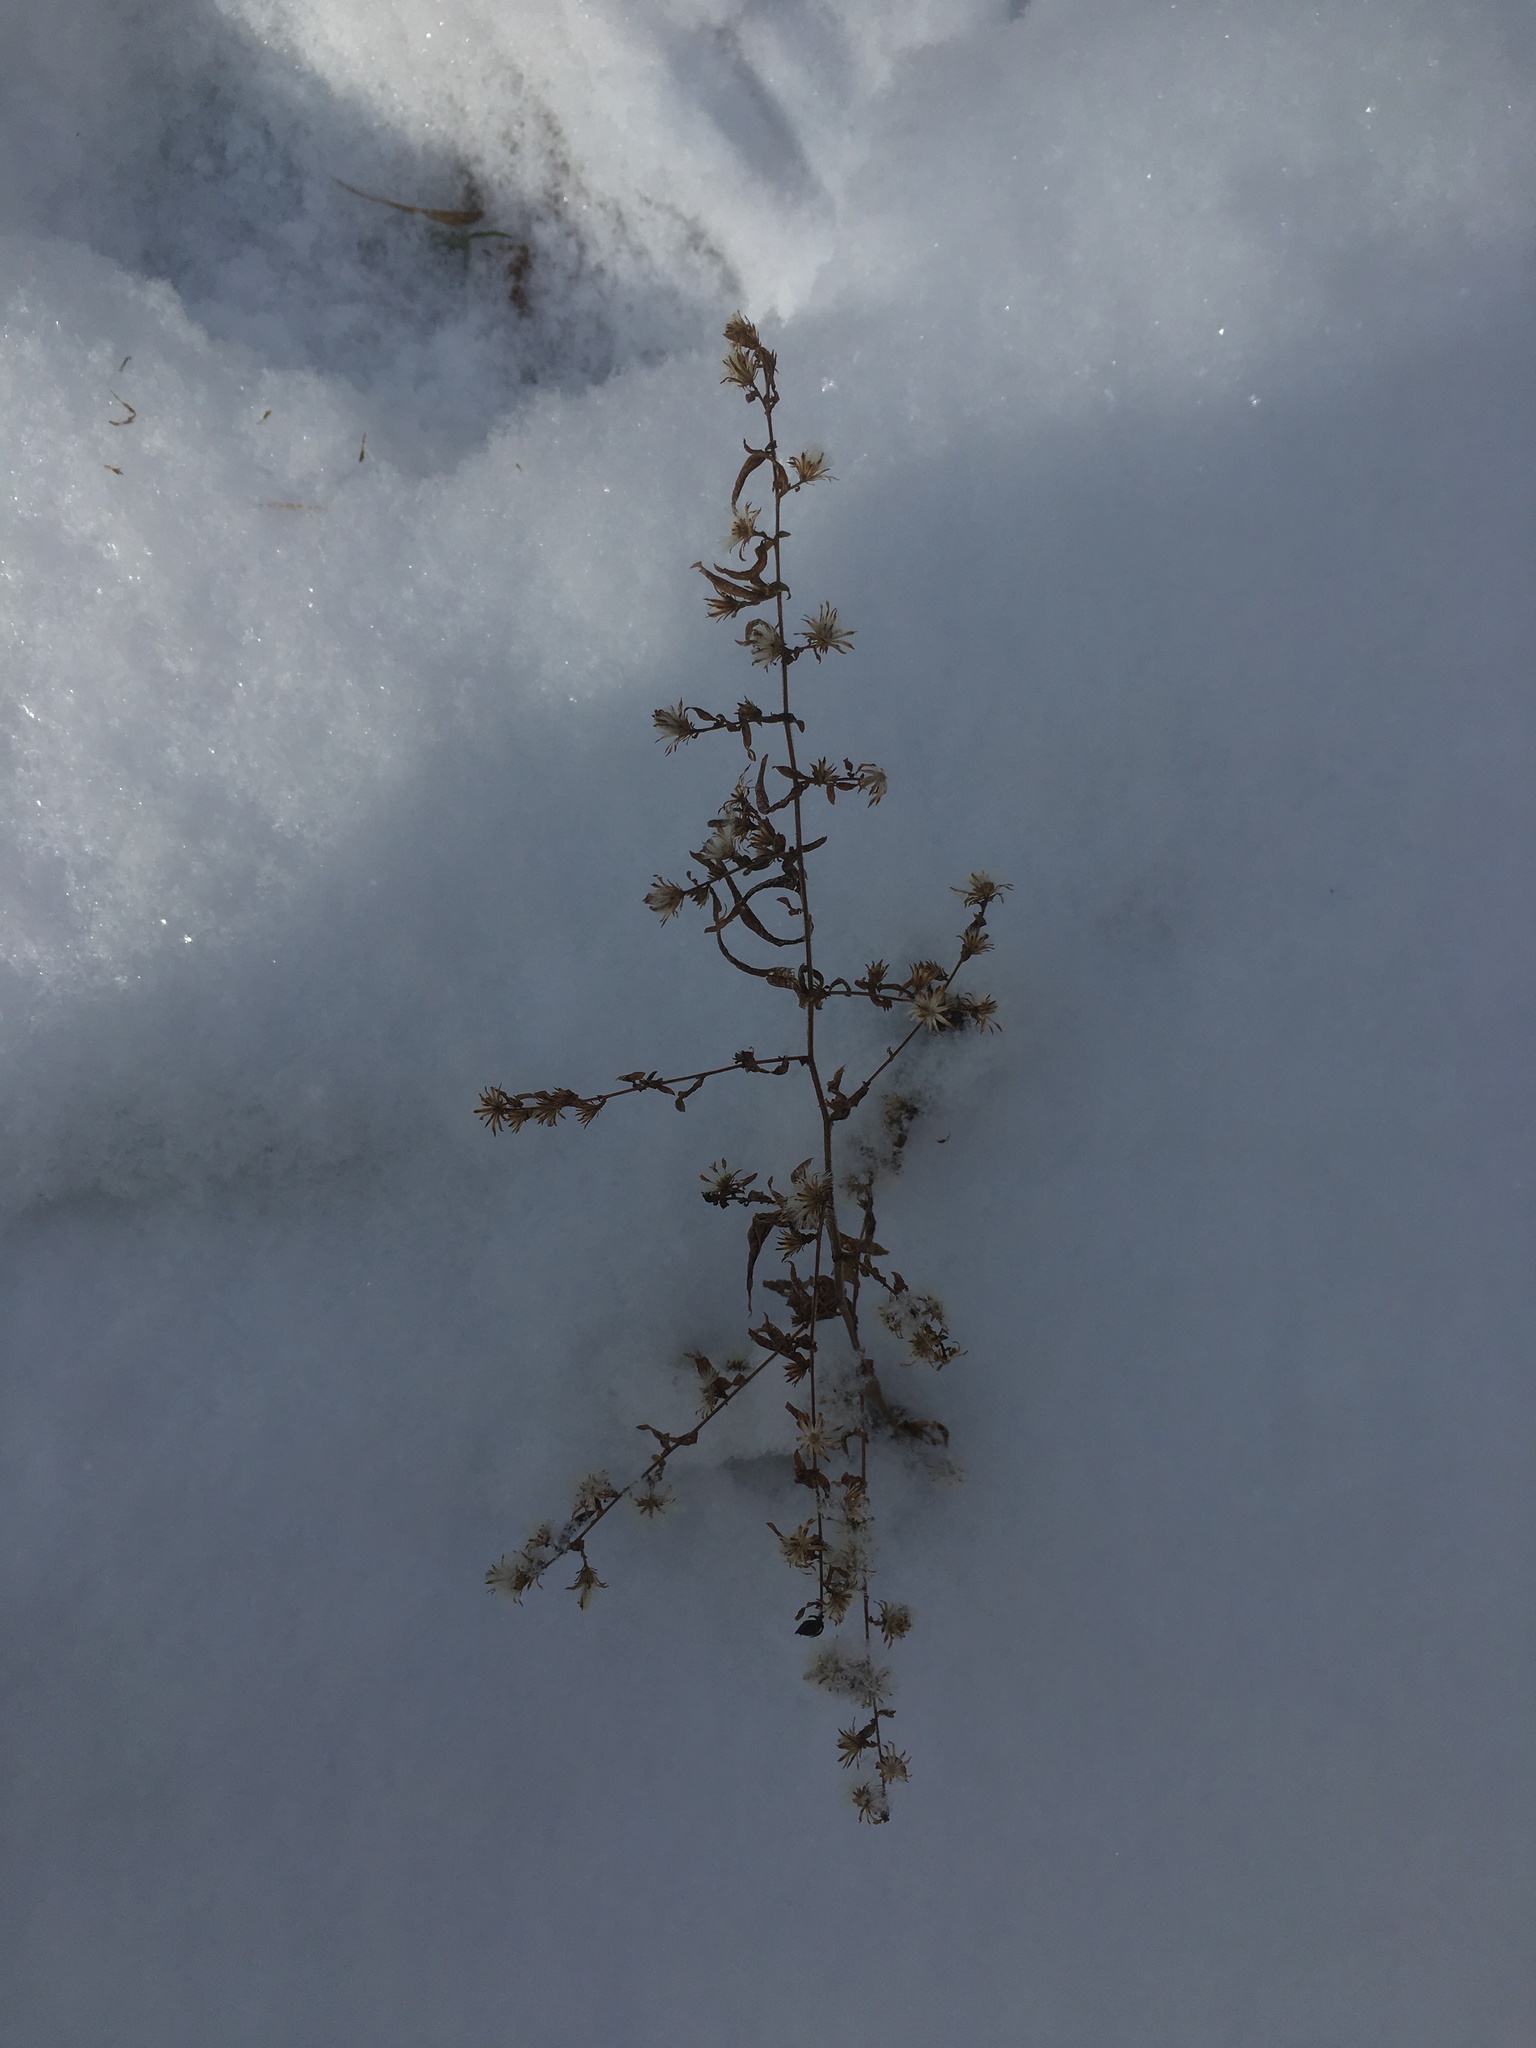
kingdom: Plantae
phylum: Tracheophyta
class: Magnoliopsida
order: Asterales
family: Asteraceae
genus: Symphyotrichum
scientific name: Symphyotrichum lateriflorum
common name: Calico aster
